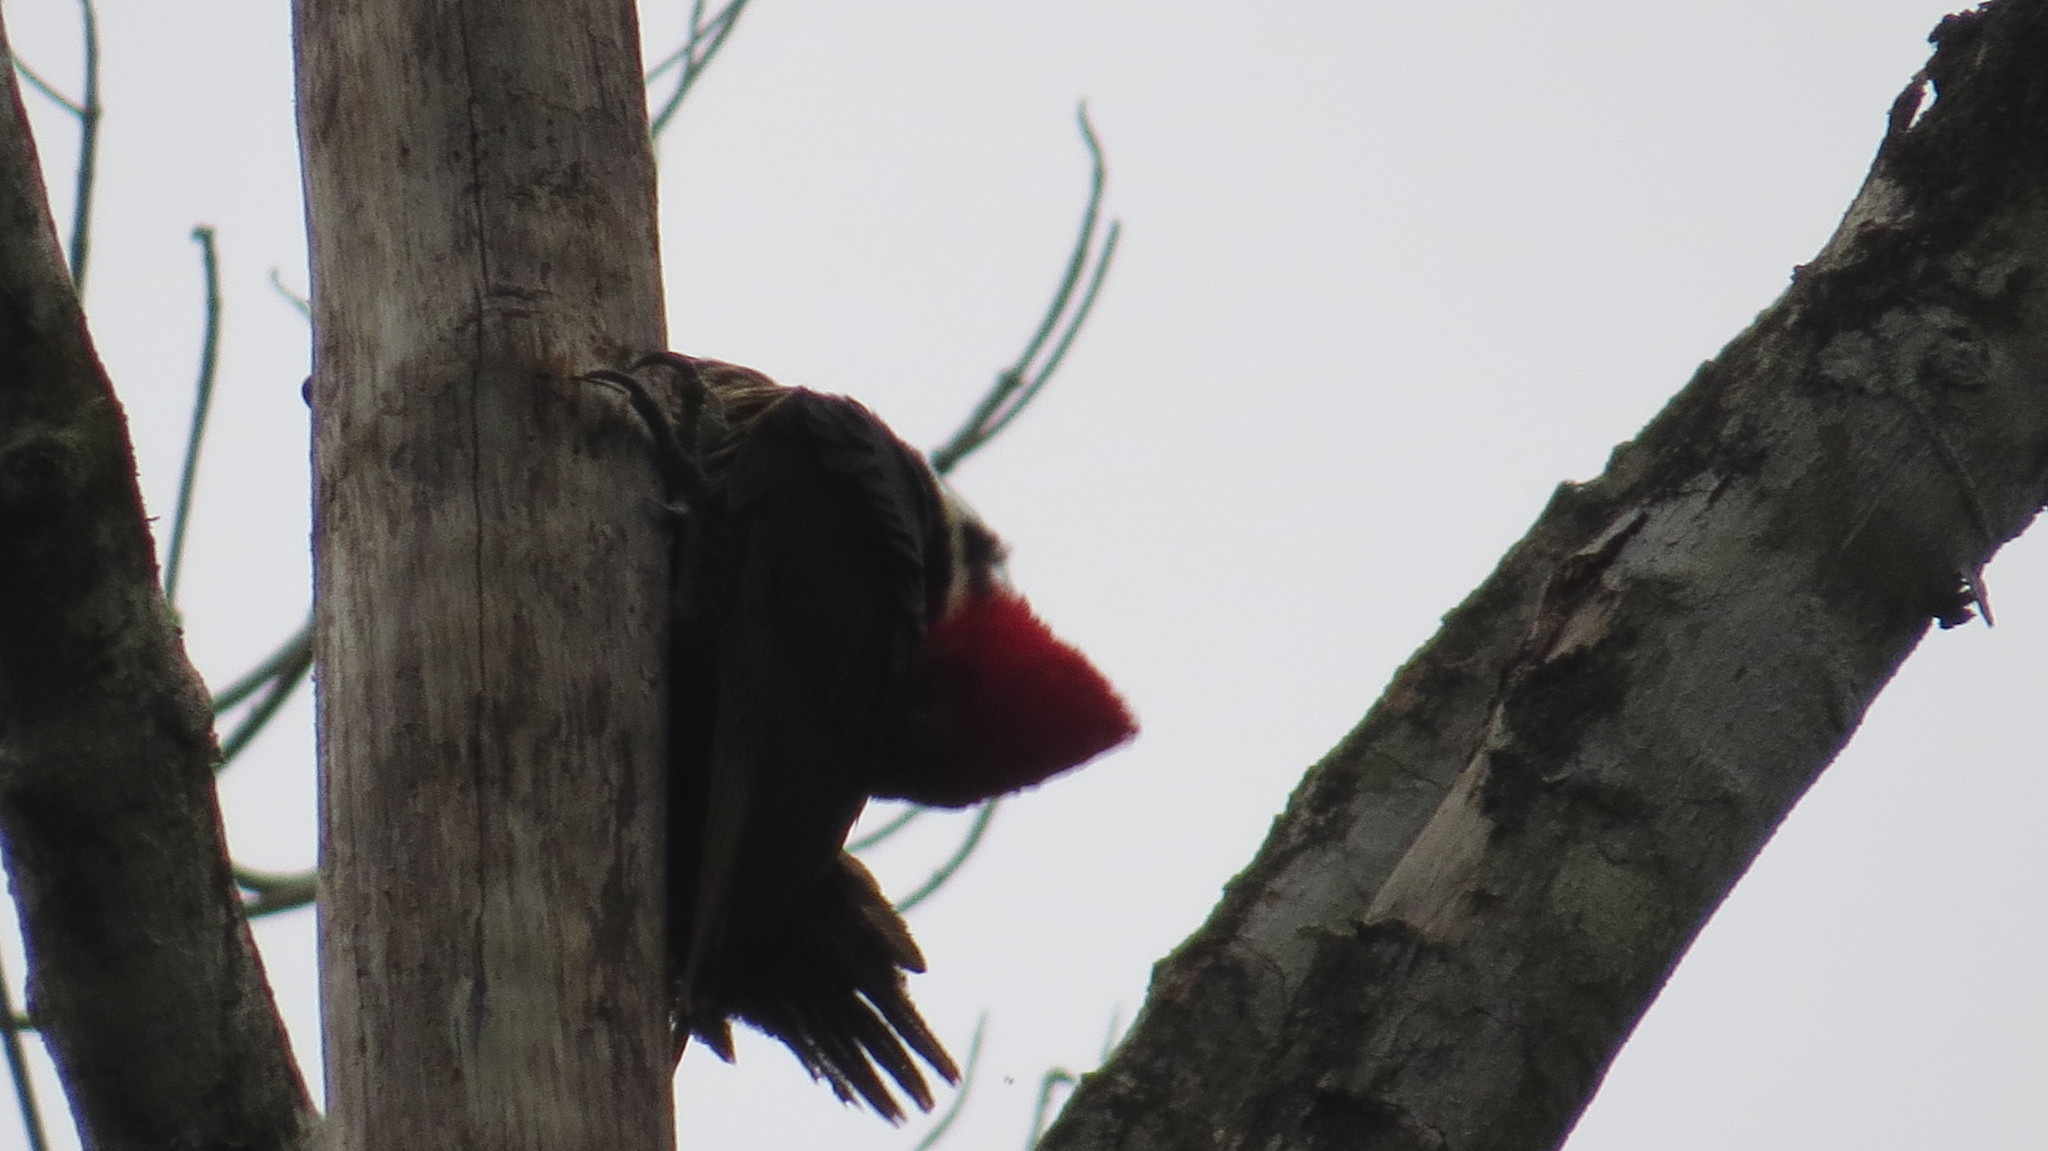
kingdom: Animalia
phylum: Chordata
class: Aves
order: Piciformes
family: Picidae
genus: Dryocopus
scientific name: Dryocopus lineatus
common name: Lineated woodpecker
